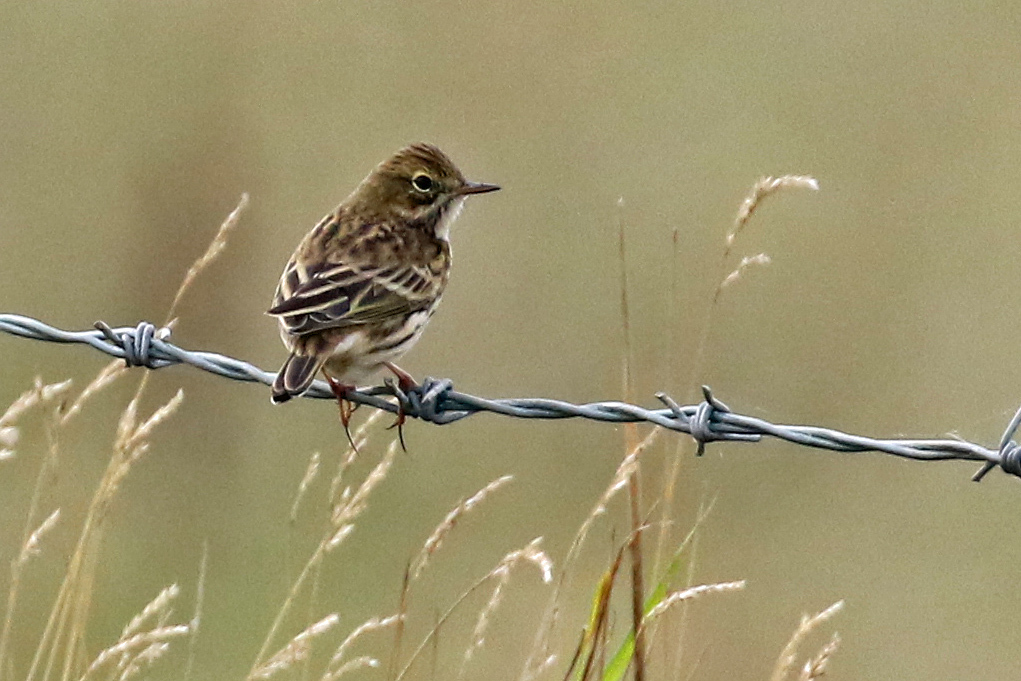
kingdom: Animalia
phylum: Chordata
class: Aves
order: Passeriformes
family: Motacillidae
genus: Anthus
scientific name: Anthus pratensis
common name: Meadow pipit
